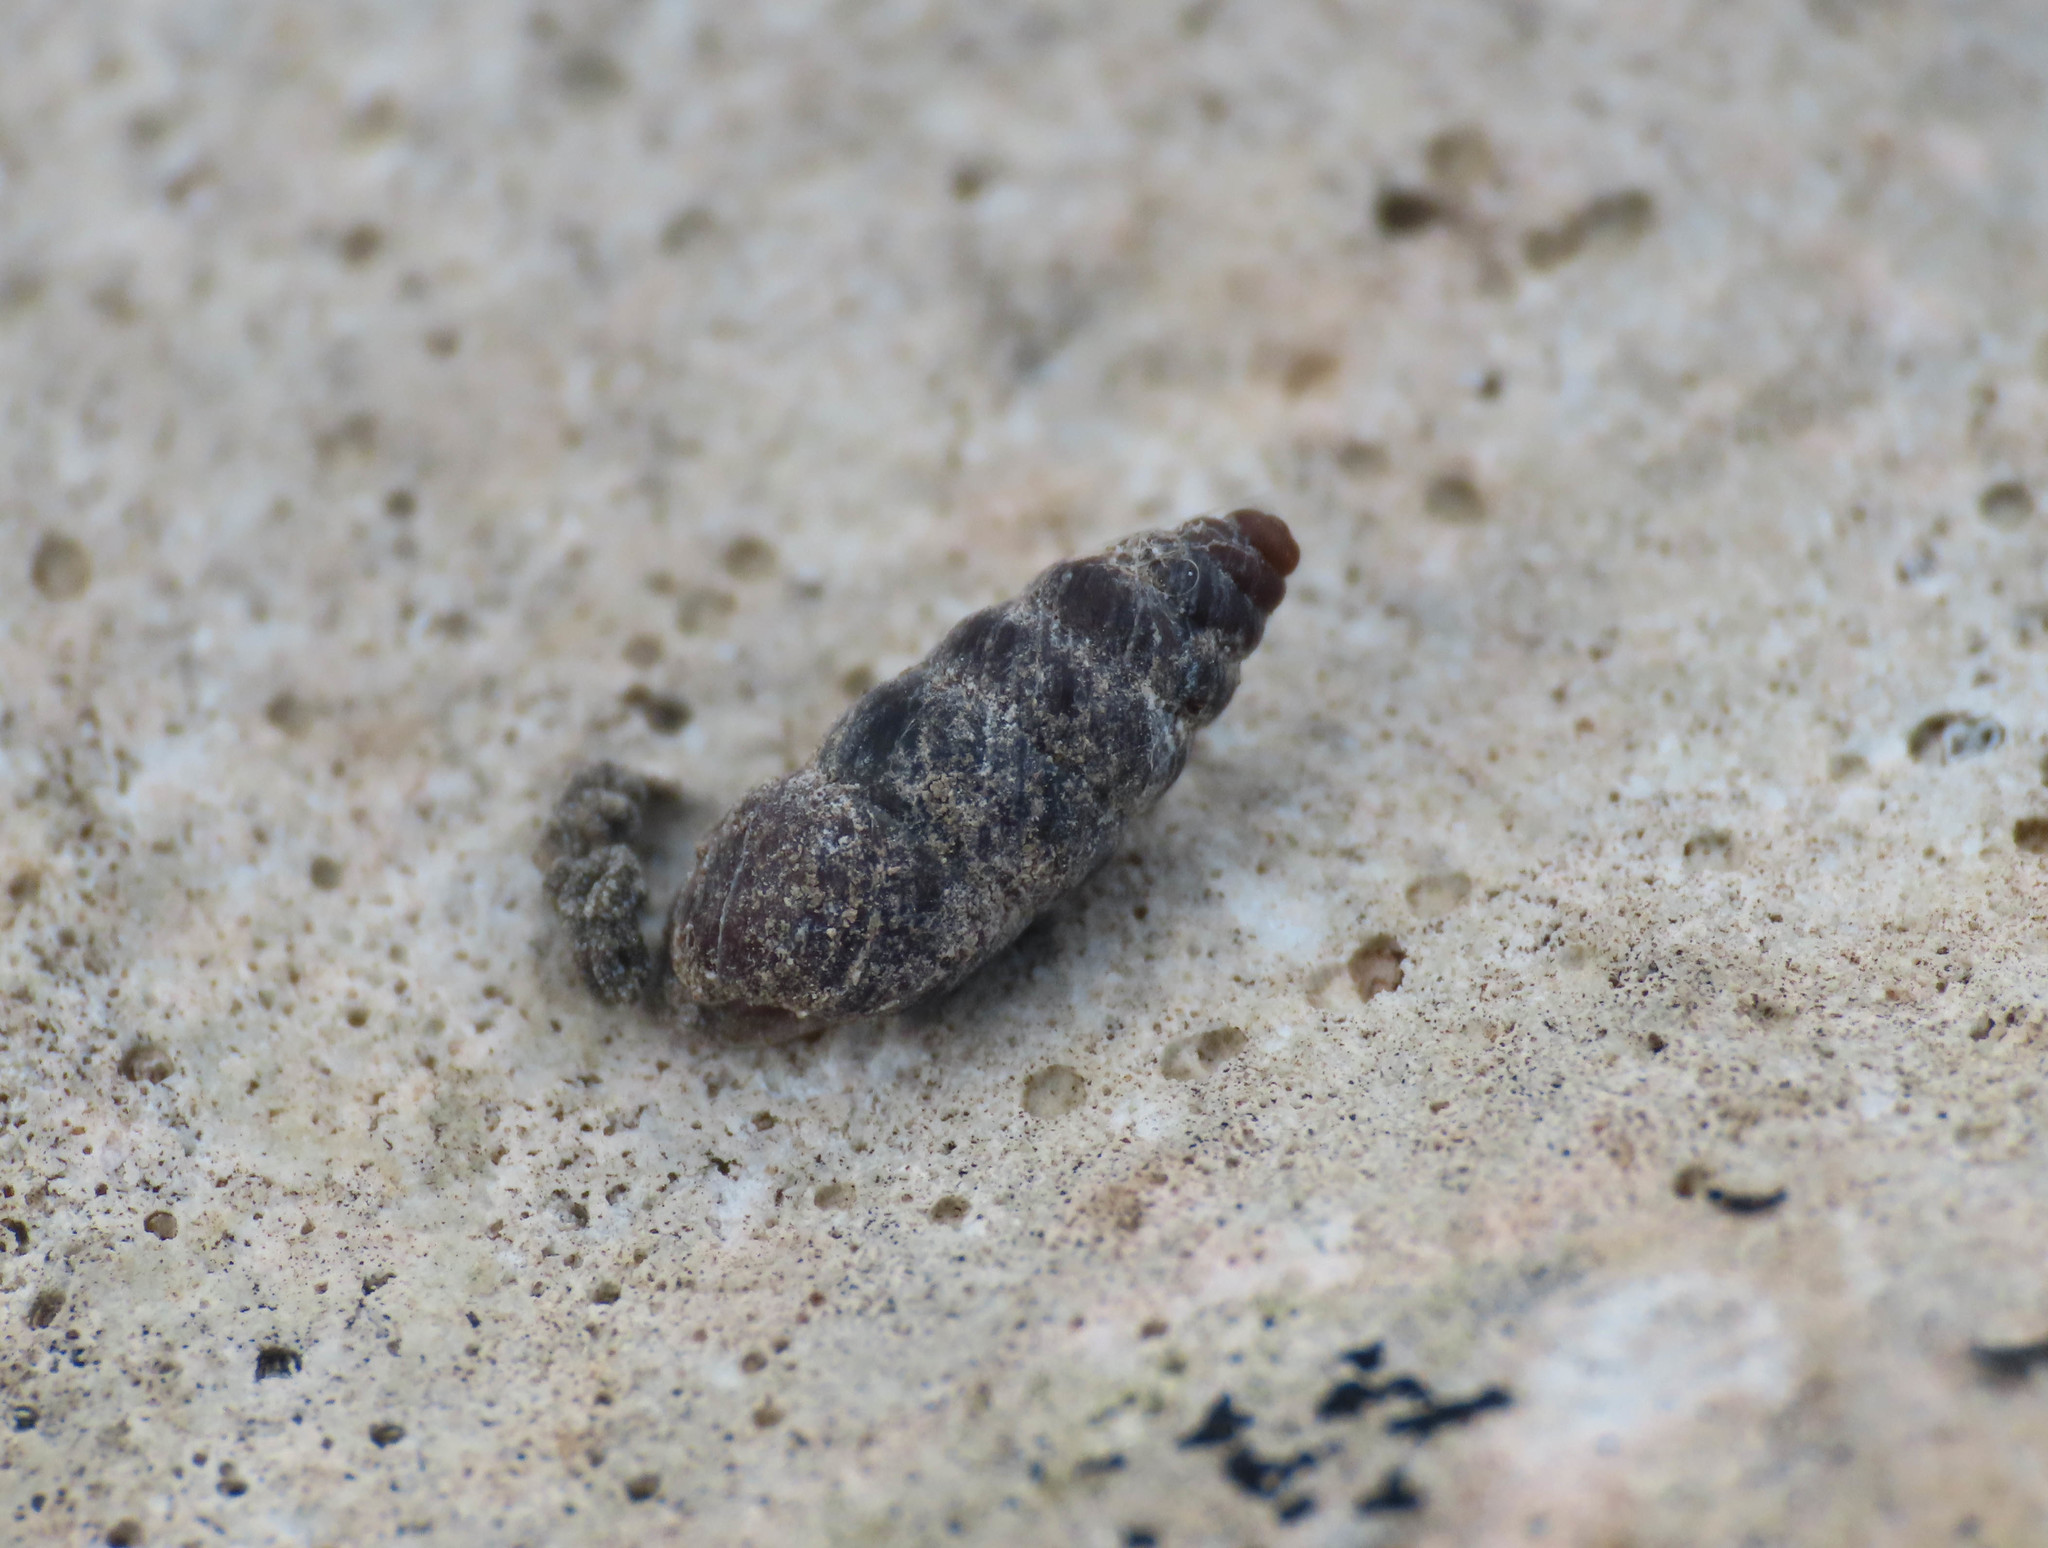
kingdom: Animalia
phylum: Mollusca
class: Gastropoda
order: Stylommatophora
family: Chondrinidae
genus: Chondrina
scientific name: Chondrina avenacea
